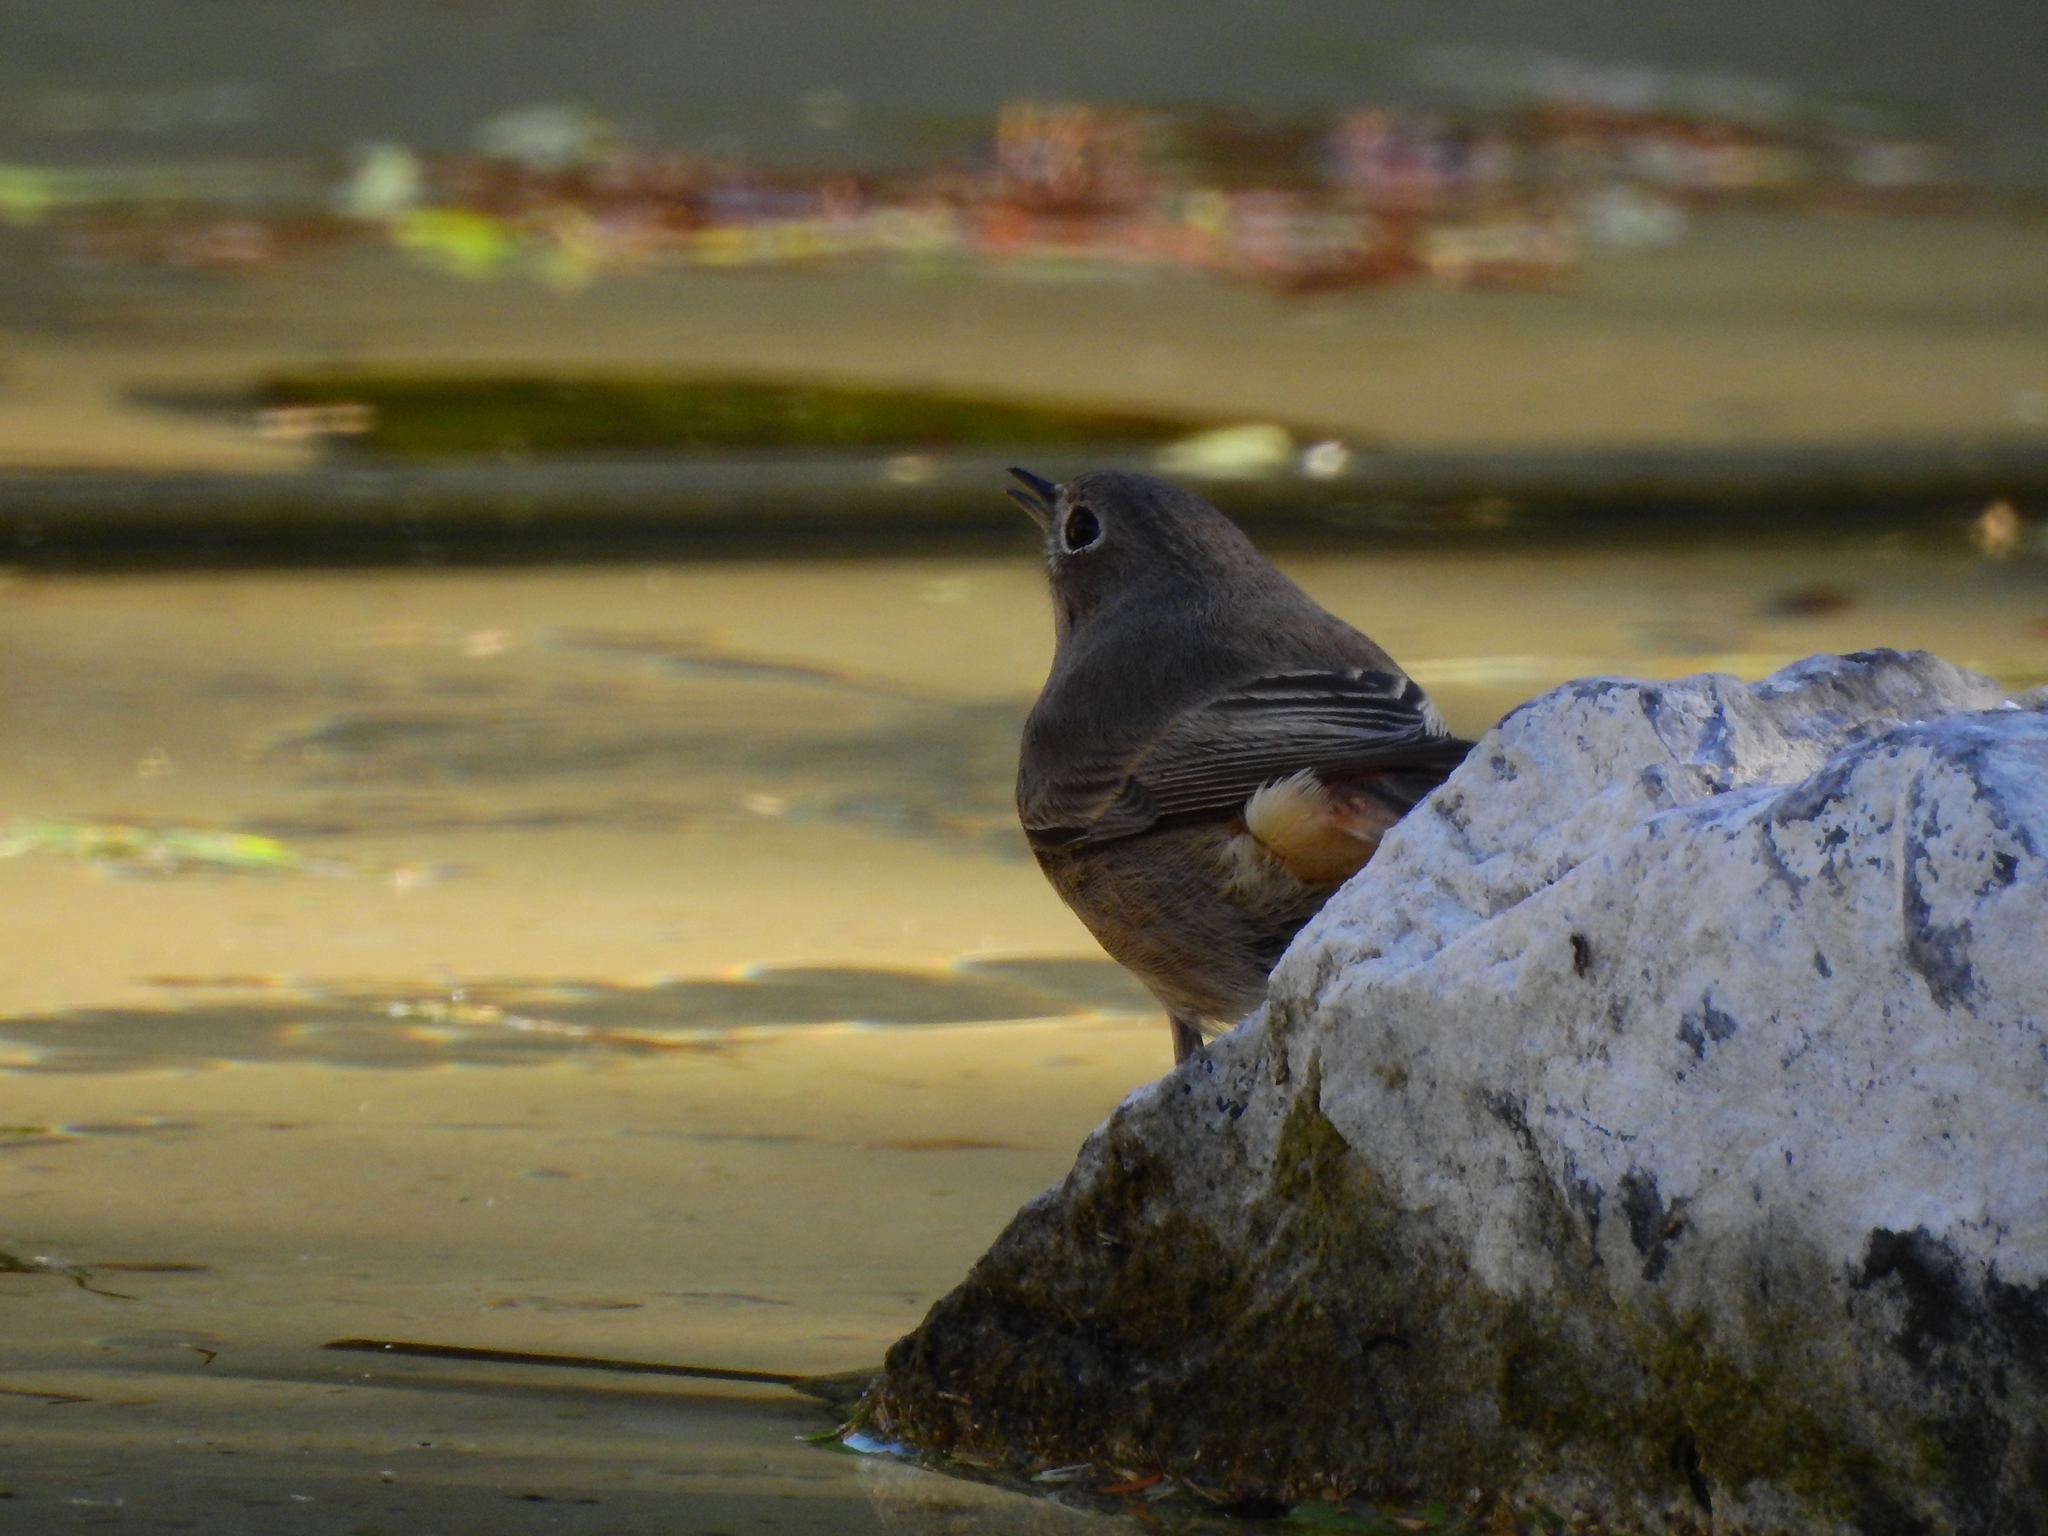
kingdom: Animalia
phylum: Chordata
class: Aves
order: Passeriformes
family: Muscicapidae
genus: Phoenicurus
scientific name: Phoenicurus ochruros
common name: Black redstart
